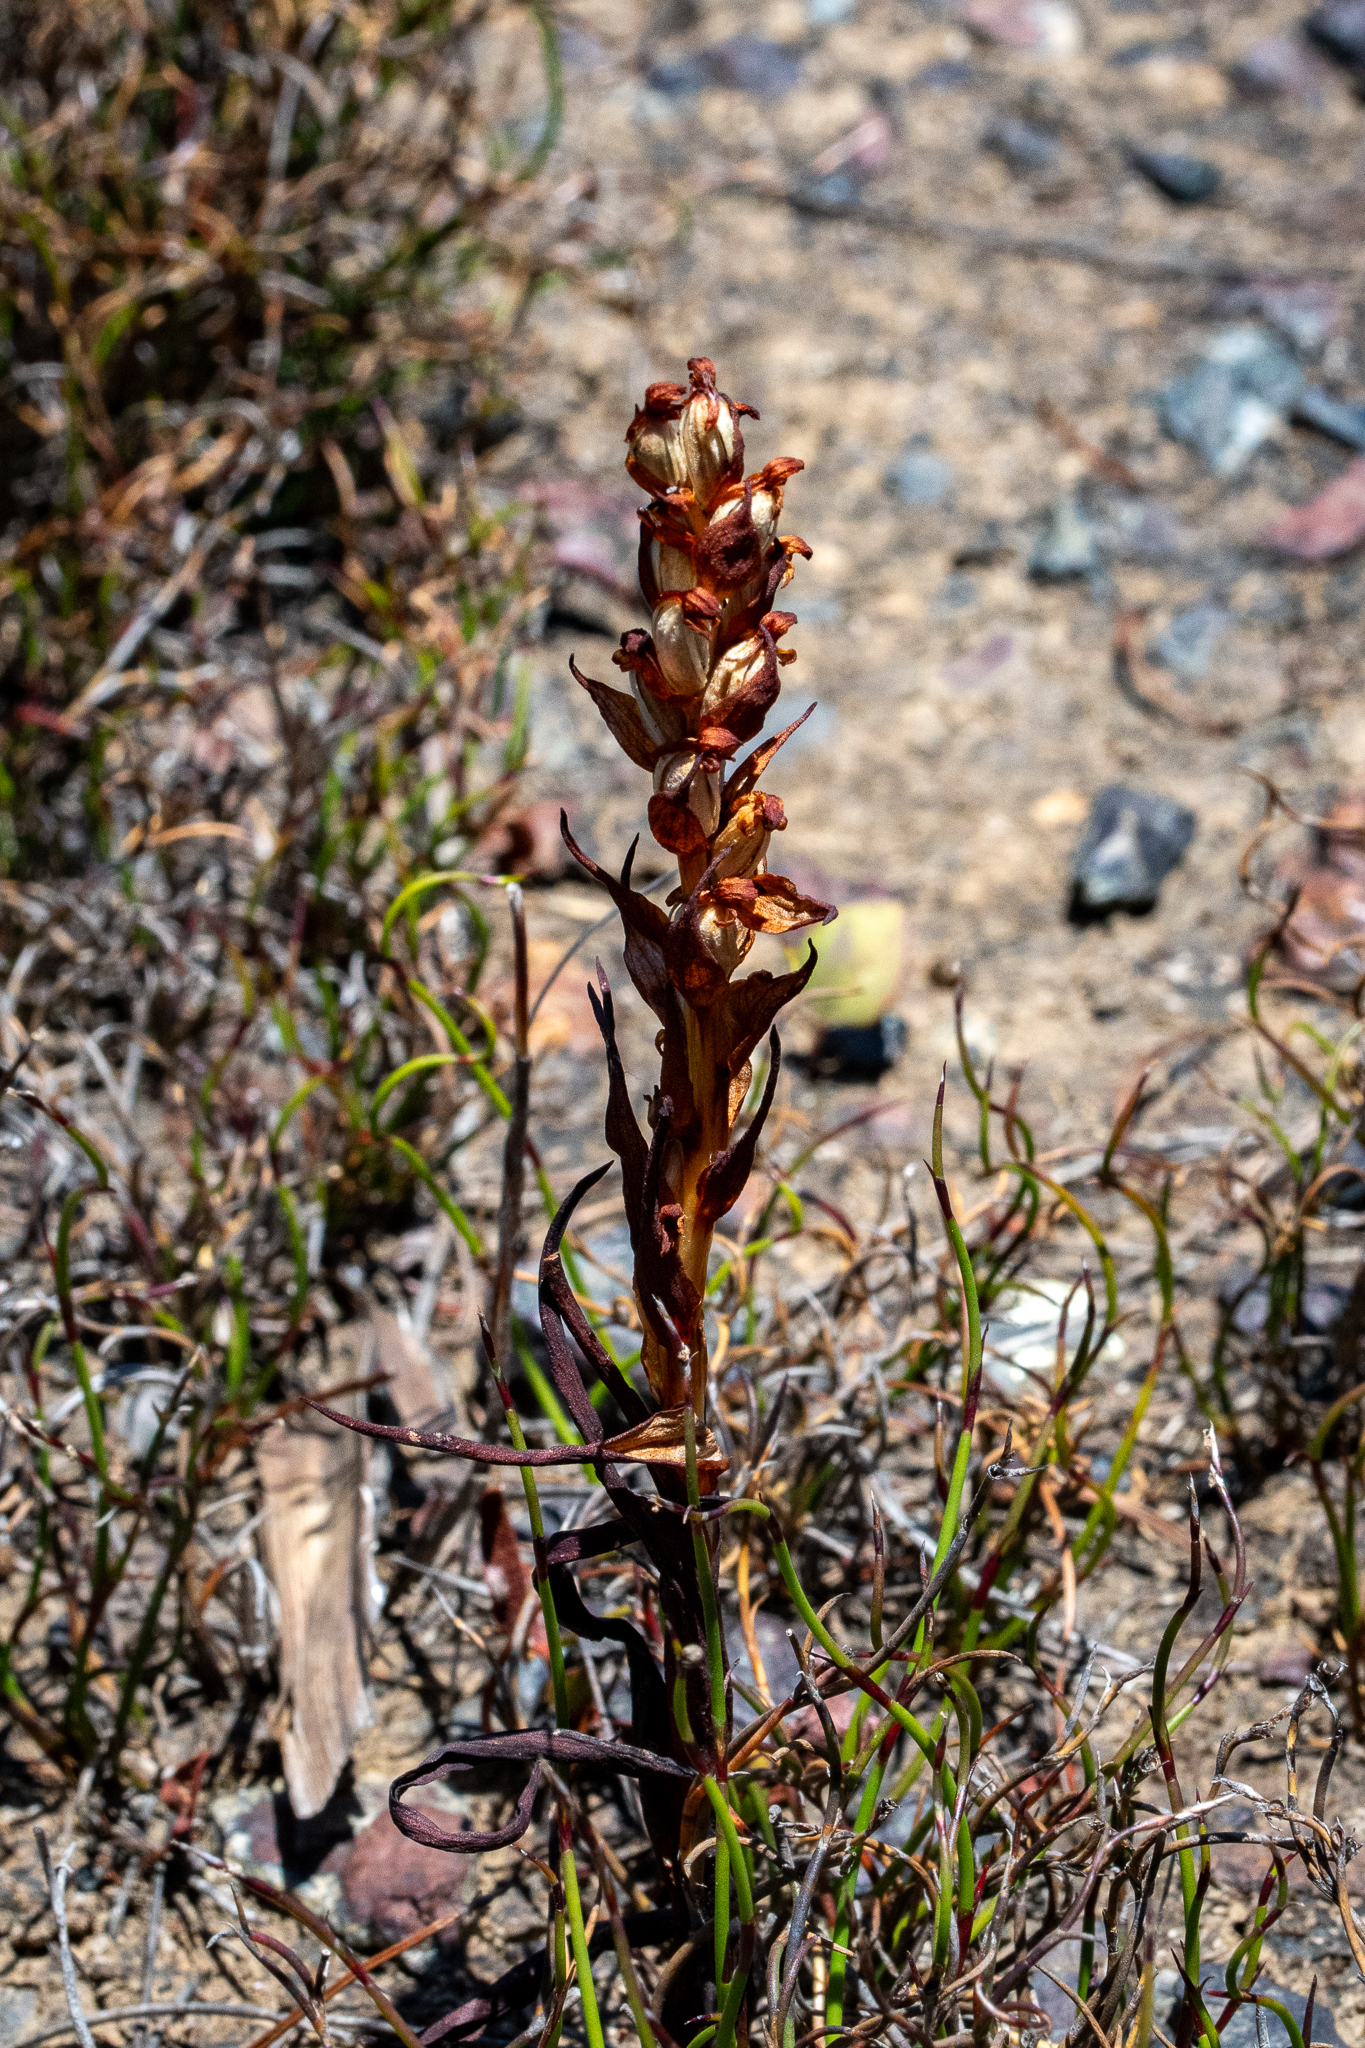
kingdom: Plantae
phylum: Tracheophyta
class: Liliopsida
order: Asparagales
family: Orchidaceae
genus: Disa
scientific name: Disa bracteata
